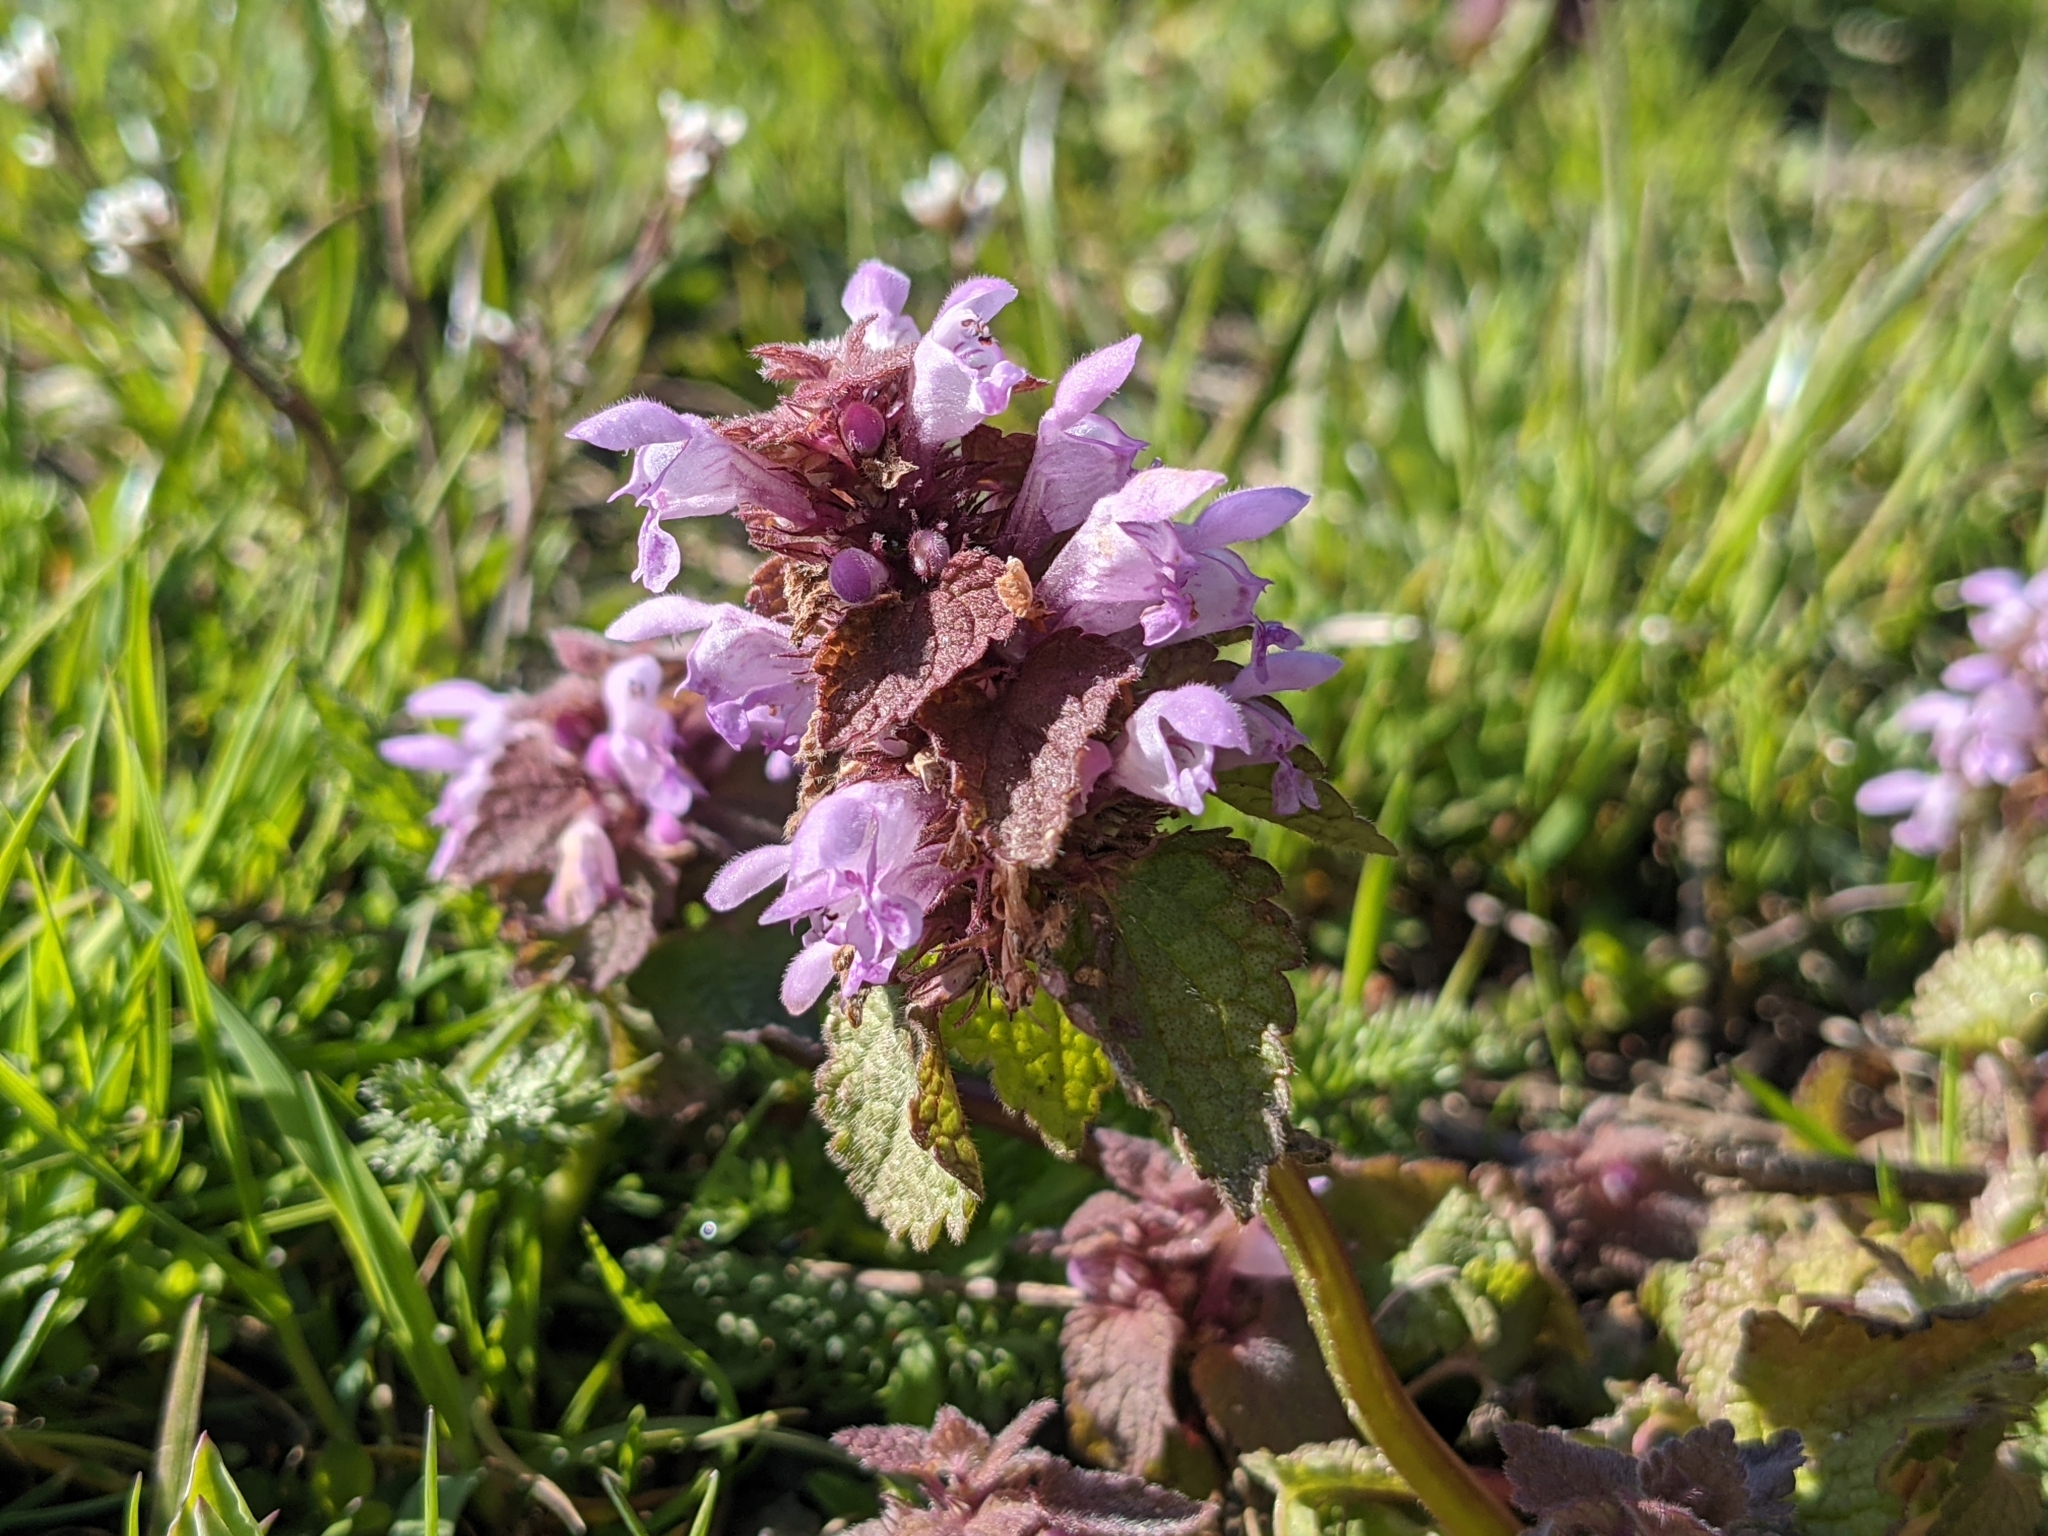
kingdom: Plantae
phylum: Tracheophyta
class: Magnoliopsida
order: Lamiales
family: Lamiaceae
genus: Lamium
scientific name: Lamium purpureum
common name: Red dead-nettle
